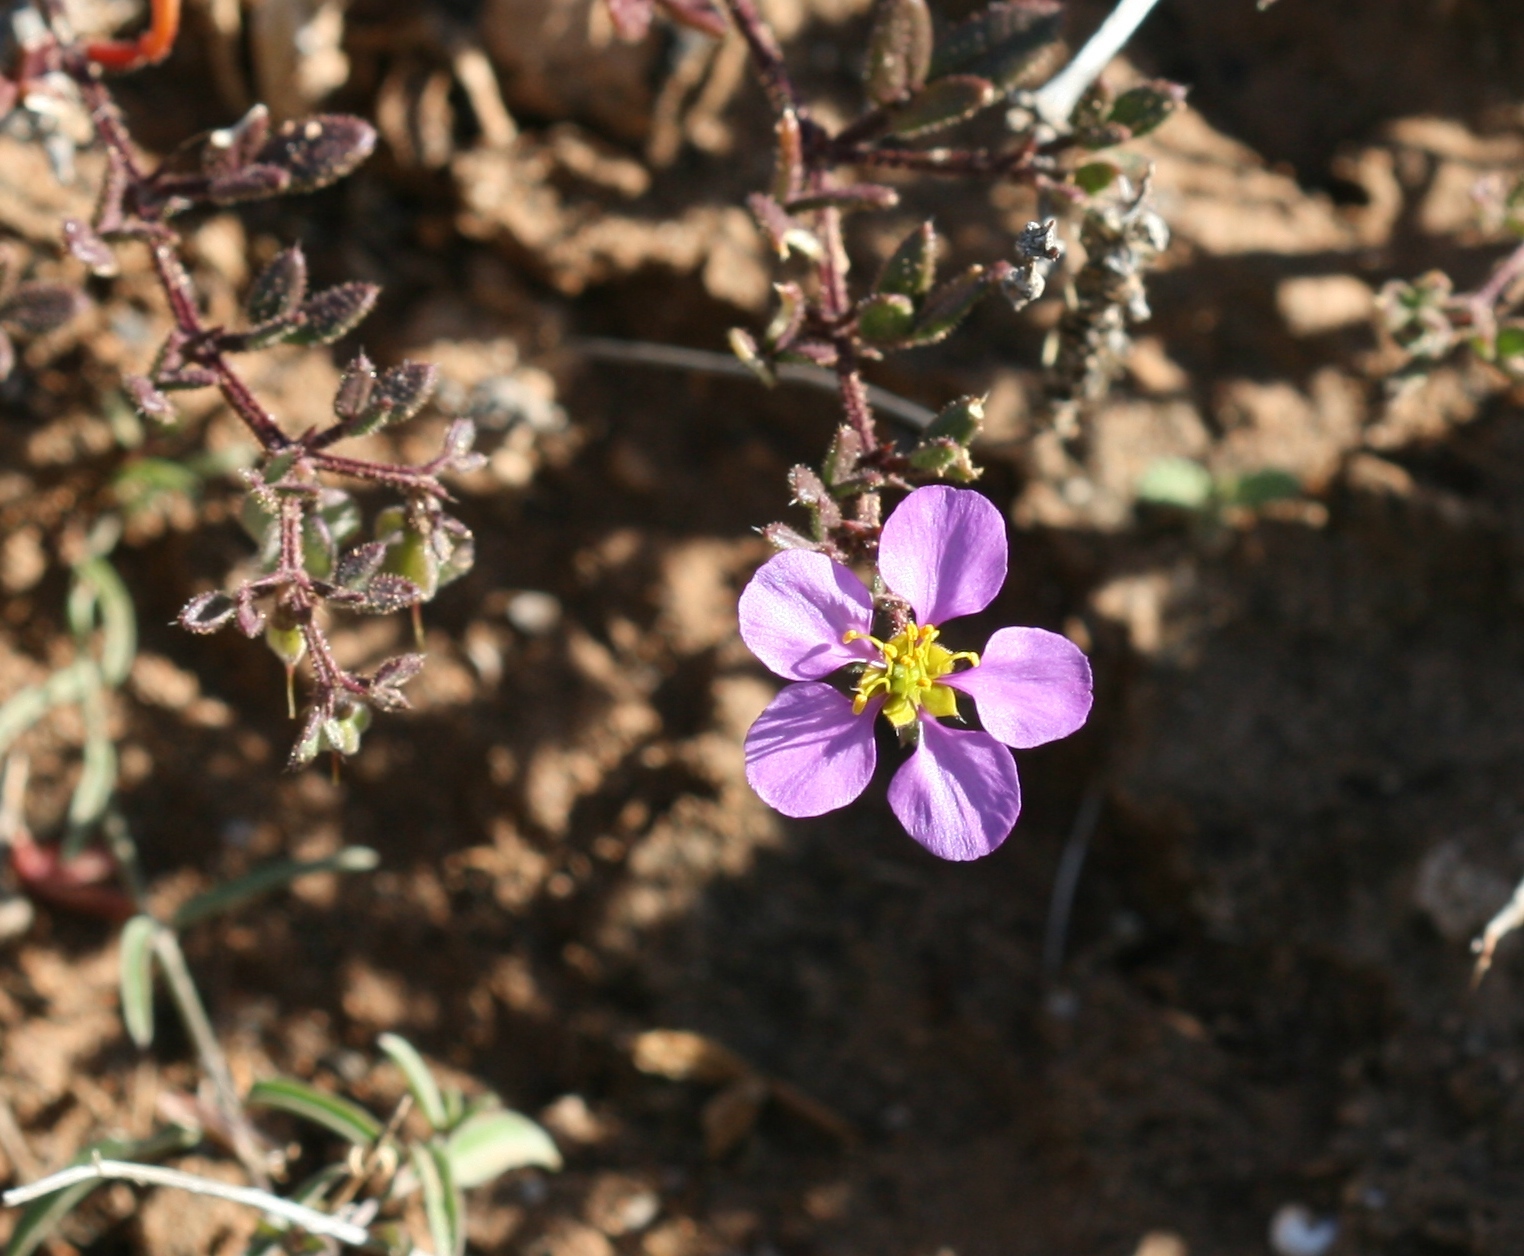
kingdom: Plantae
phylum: Tracheophyta
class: Magnoliopsida
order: Zygophyllales
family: Zygophyllaceae
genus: Fagonia
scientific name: Fagonia cretica
